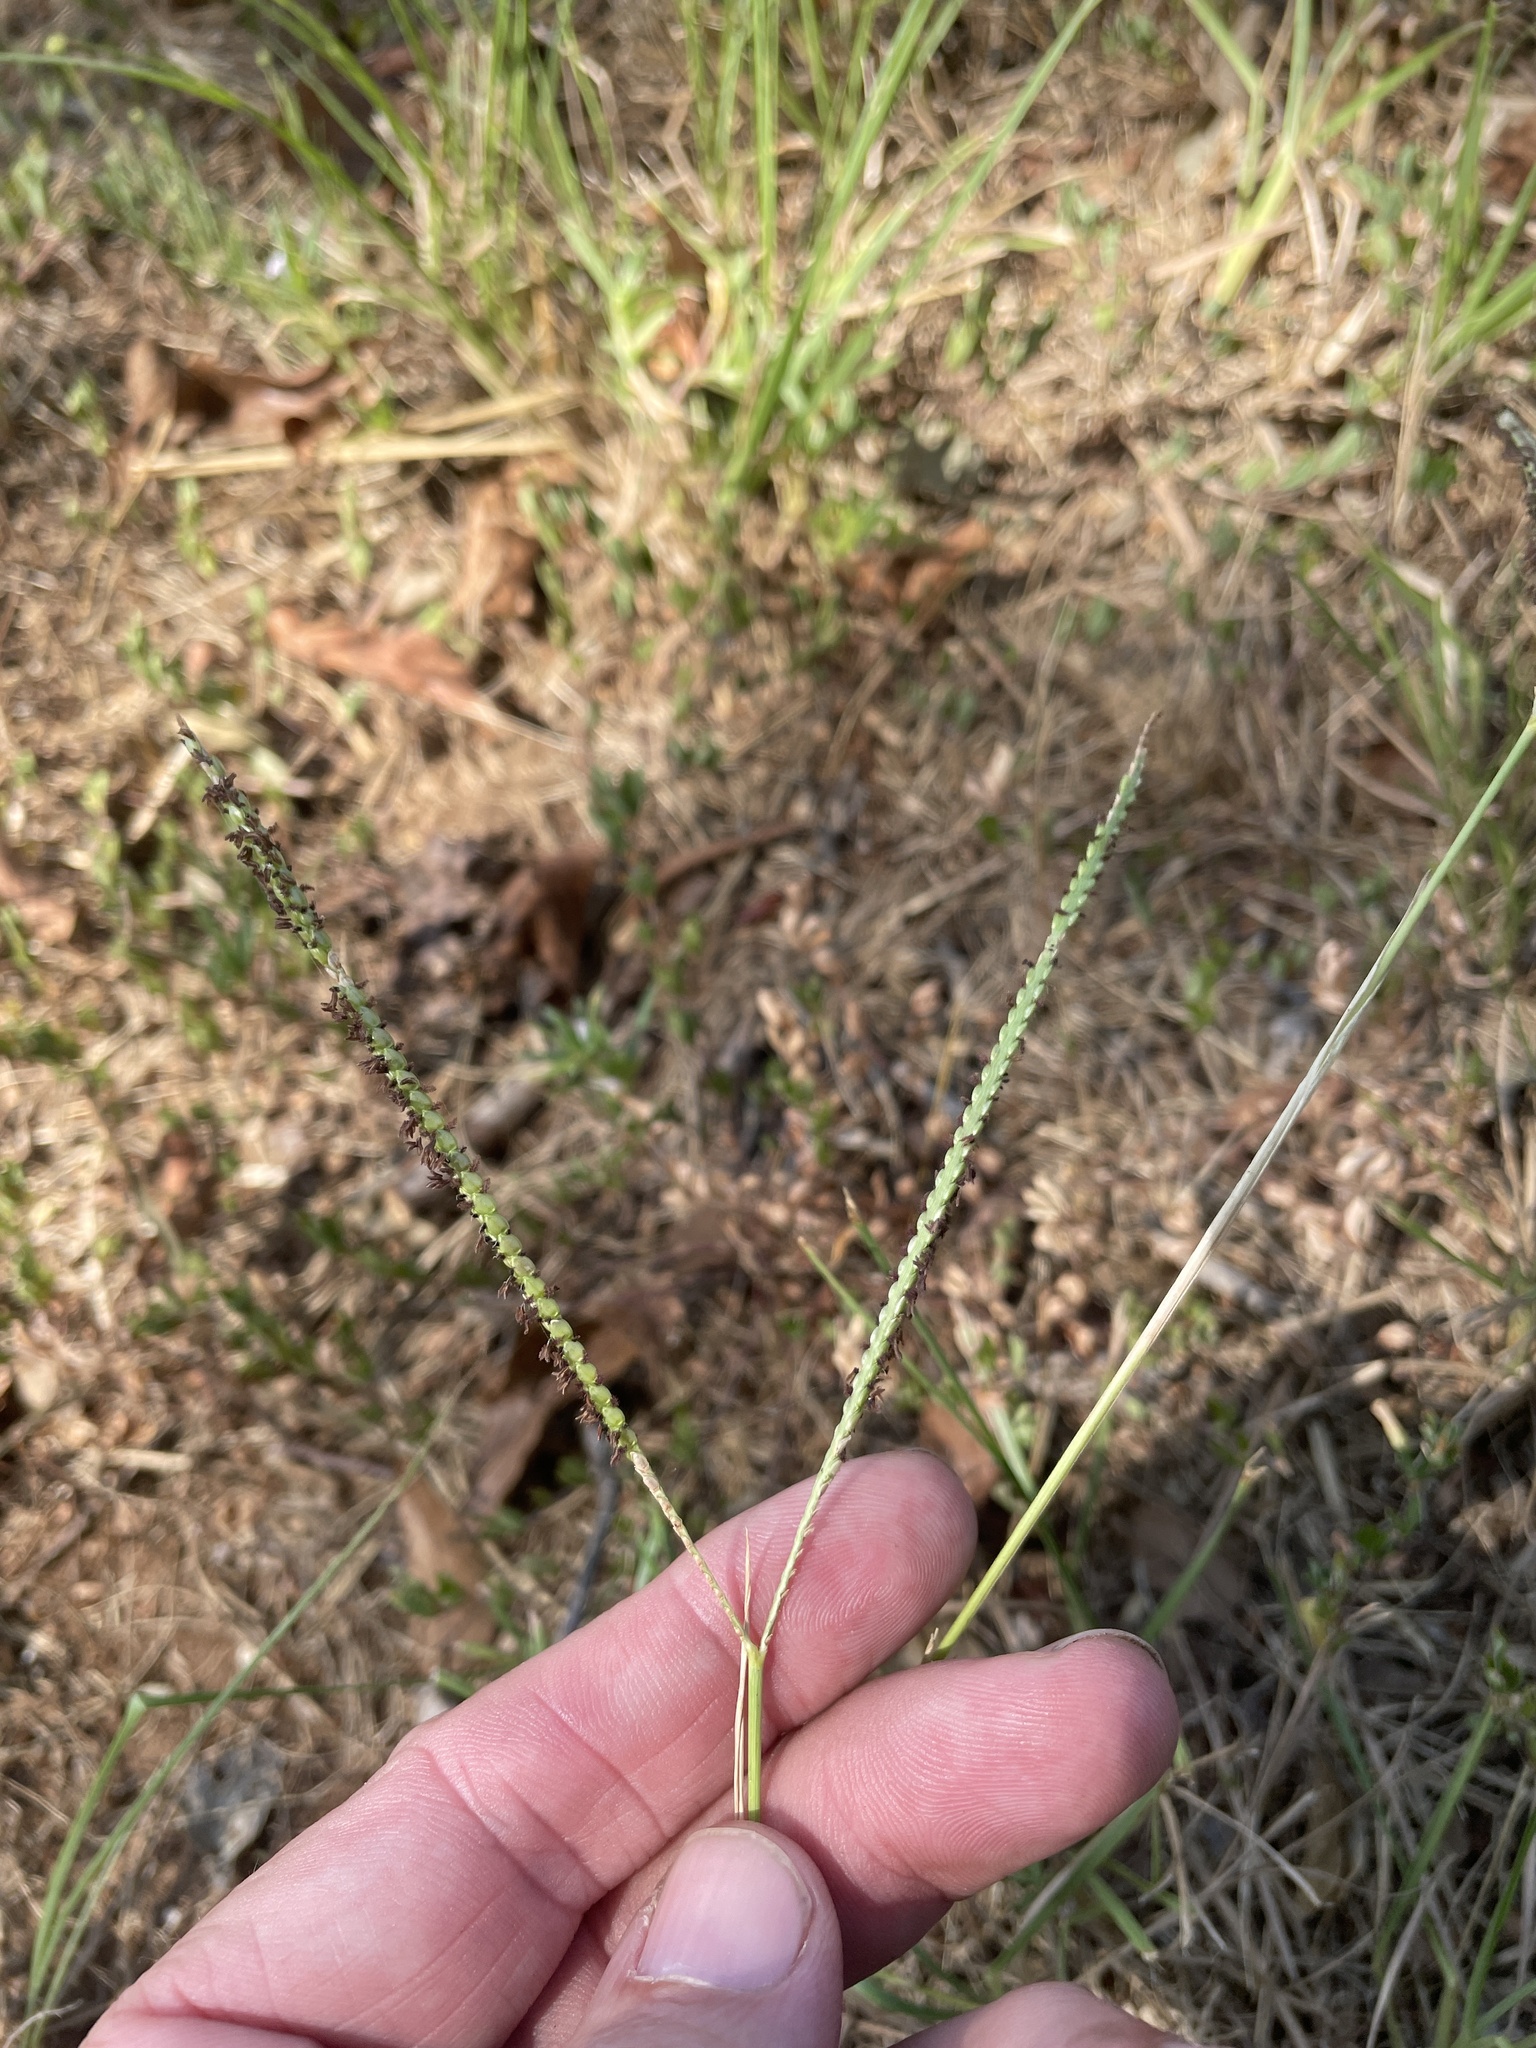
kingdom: Plantae
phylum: Tracheophyta
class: Liliopsida
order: Poales
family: Poaceae
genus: Paspalum
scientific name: Paspalum notatum
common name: Bahiagrass
